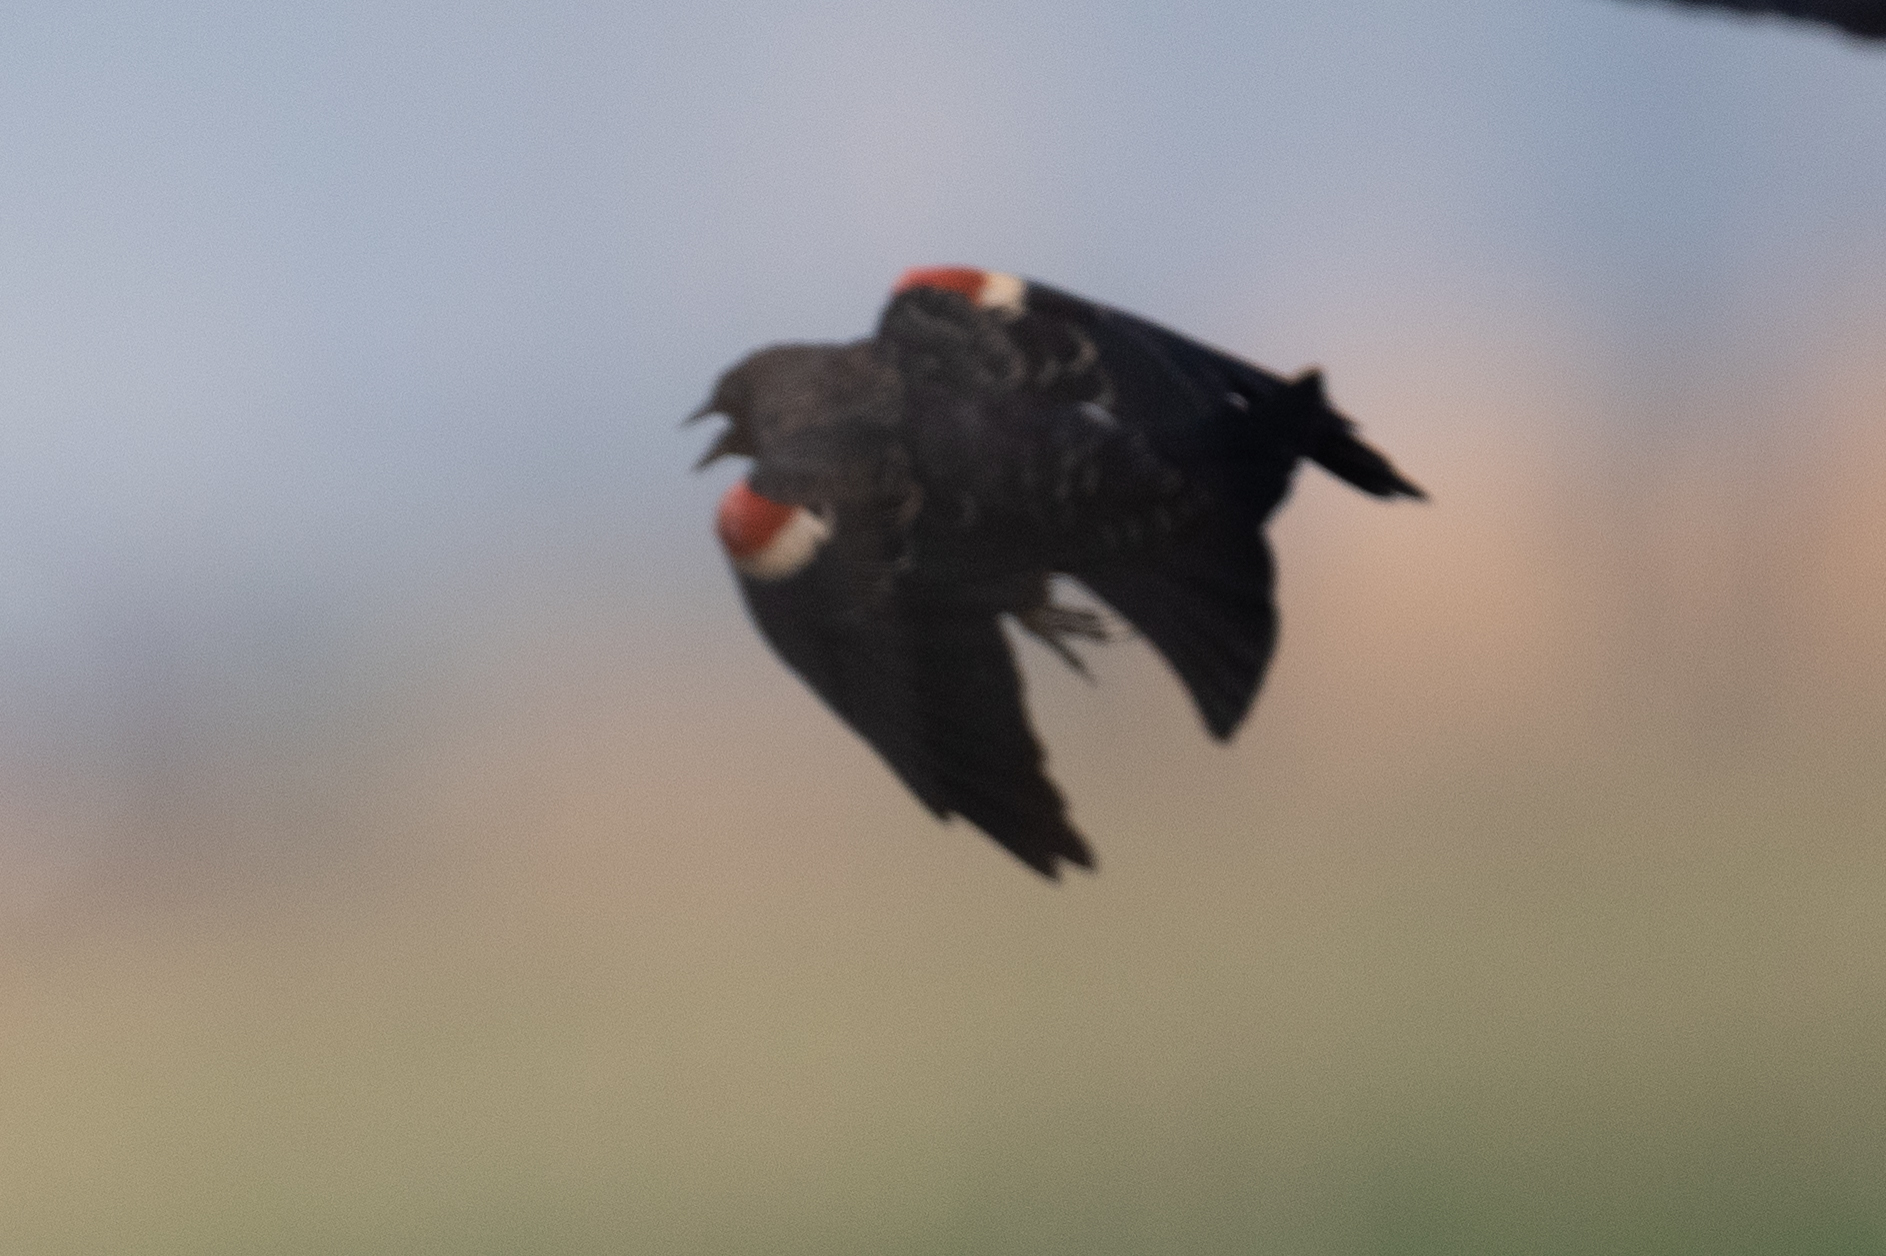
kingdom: Animalia
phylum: Chordata
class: Aves
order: Passeriformes
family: Icteridae
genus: Agelaius
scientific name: Agelaius tricolor
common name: Tricolored blackbird
